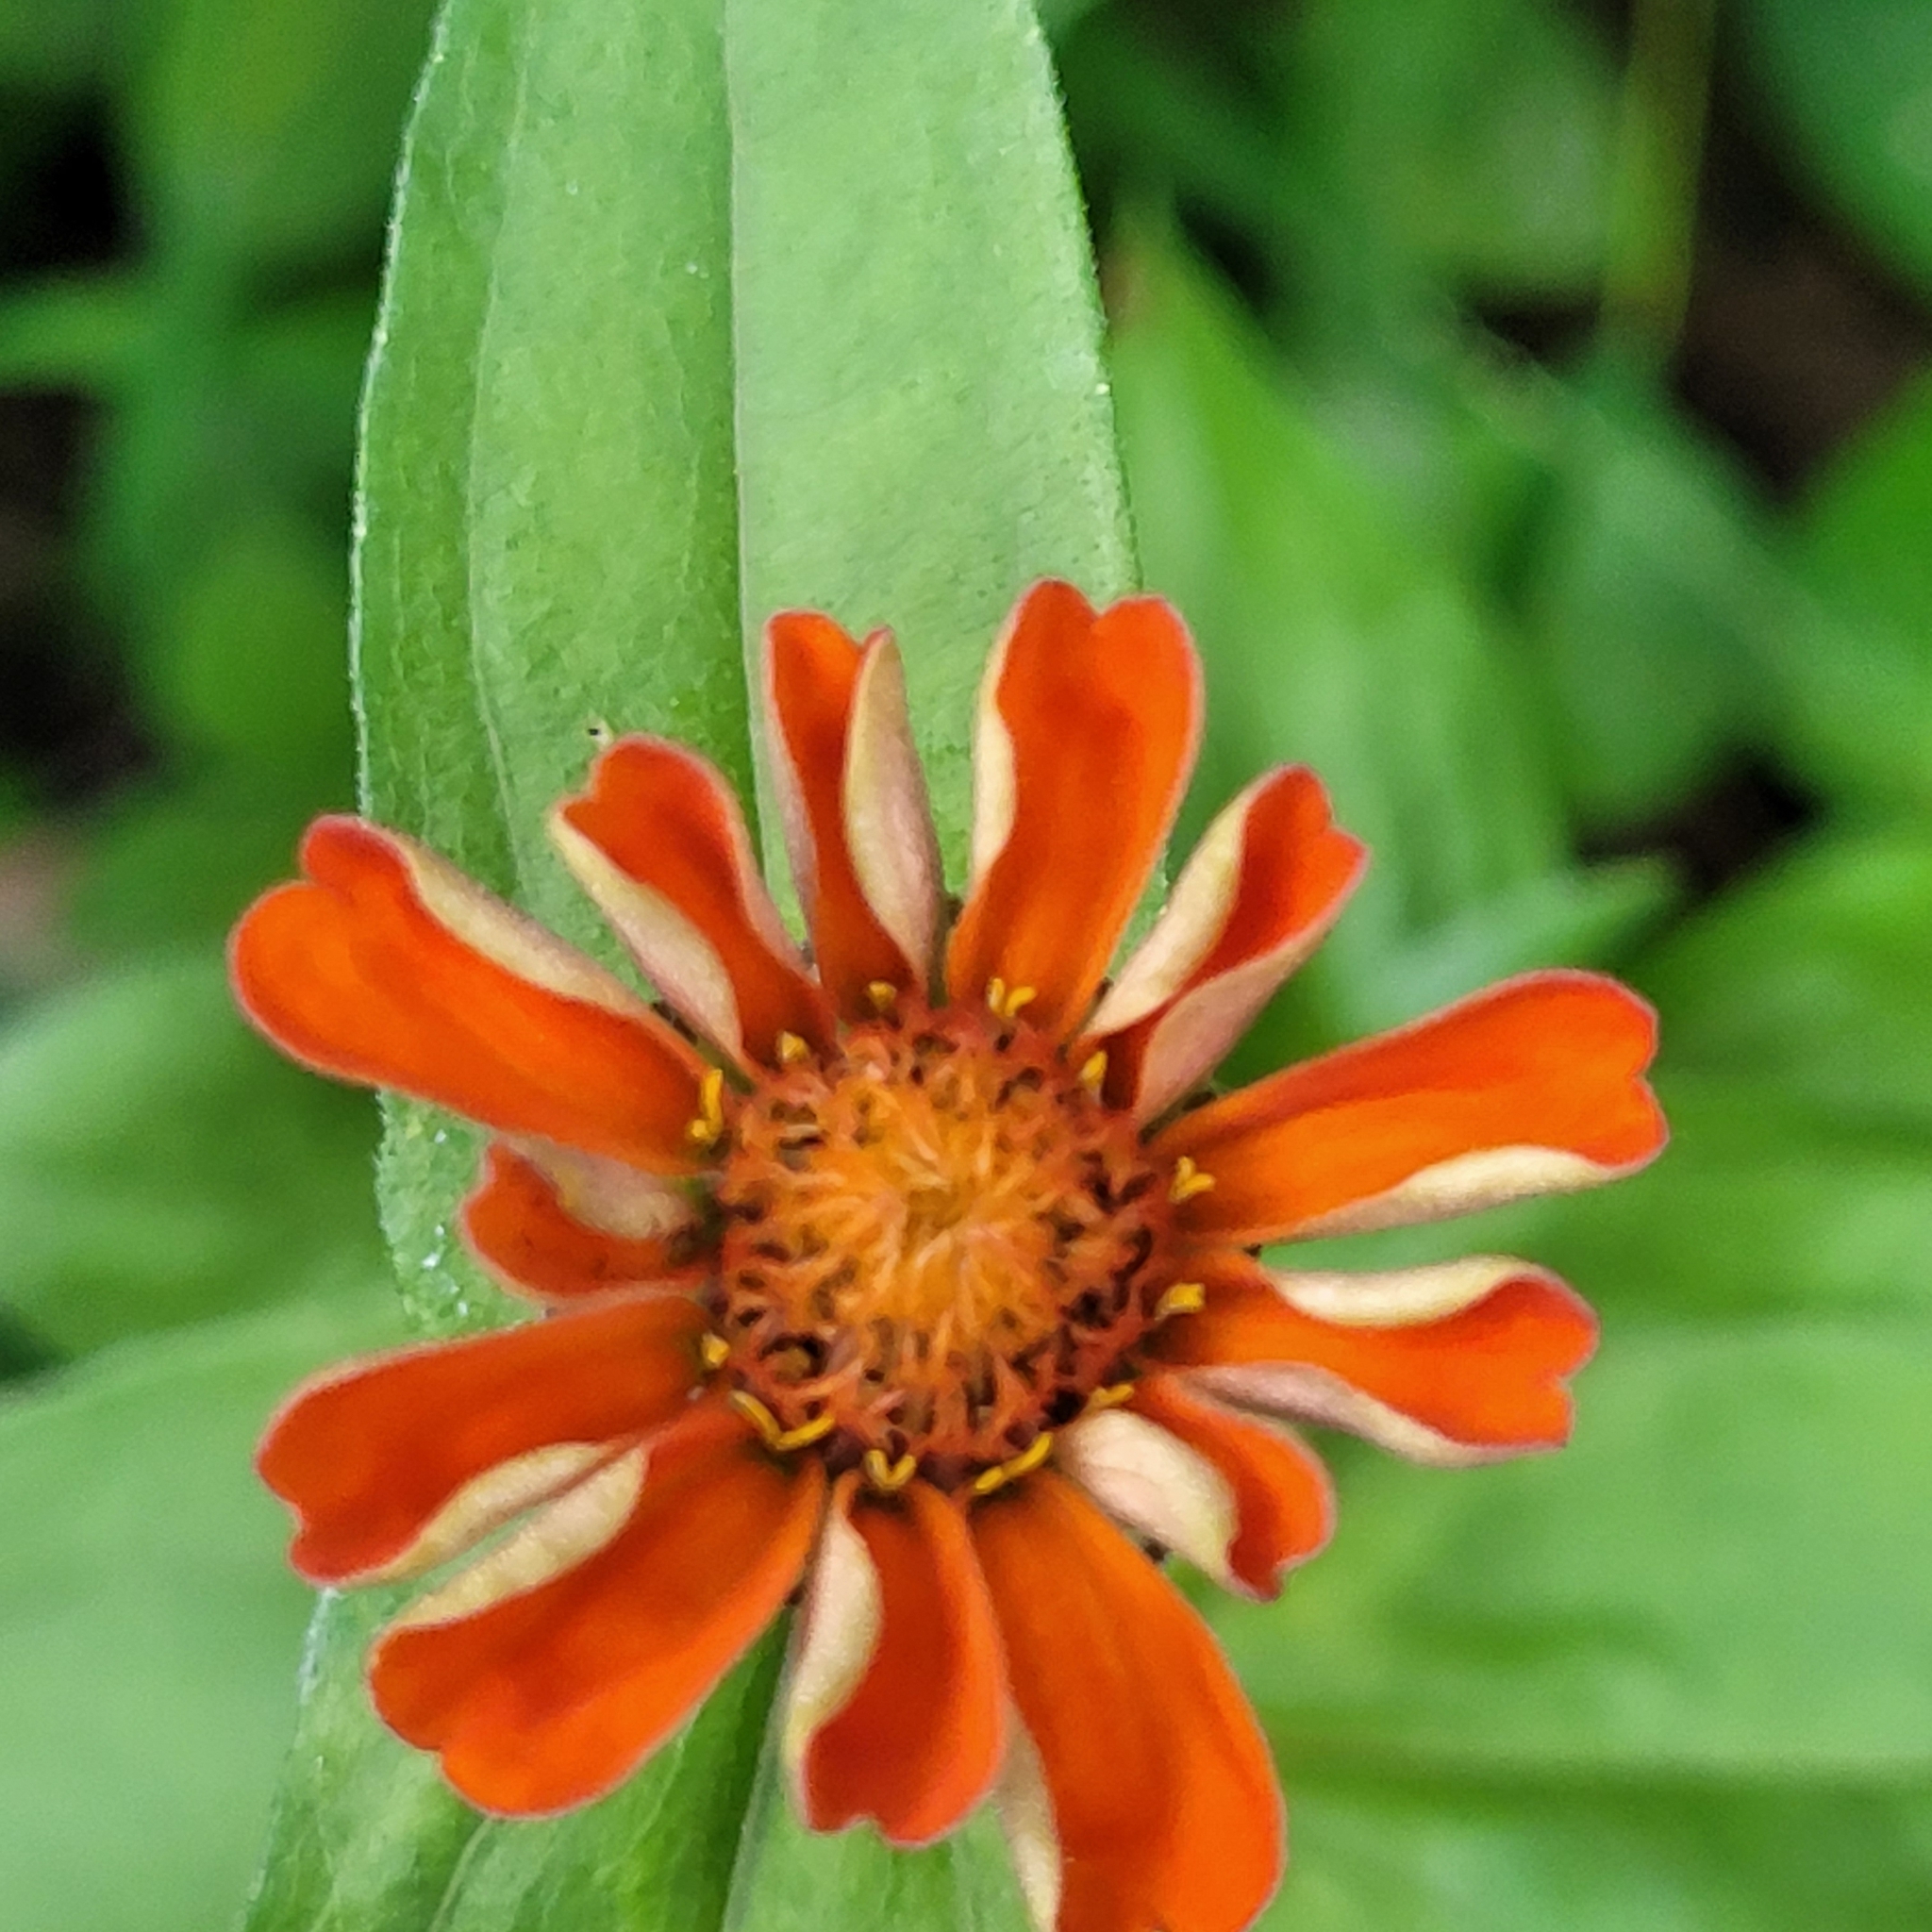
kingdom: Plantae
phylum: Tracheophyta
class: Magnoliopsida
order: Asterales
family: Asteraceae
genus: Zinnia
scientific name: Zinnia elegans
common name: Youth-and-age
